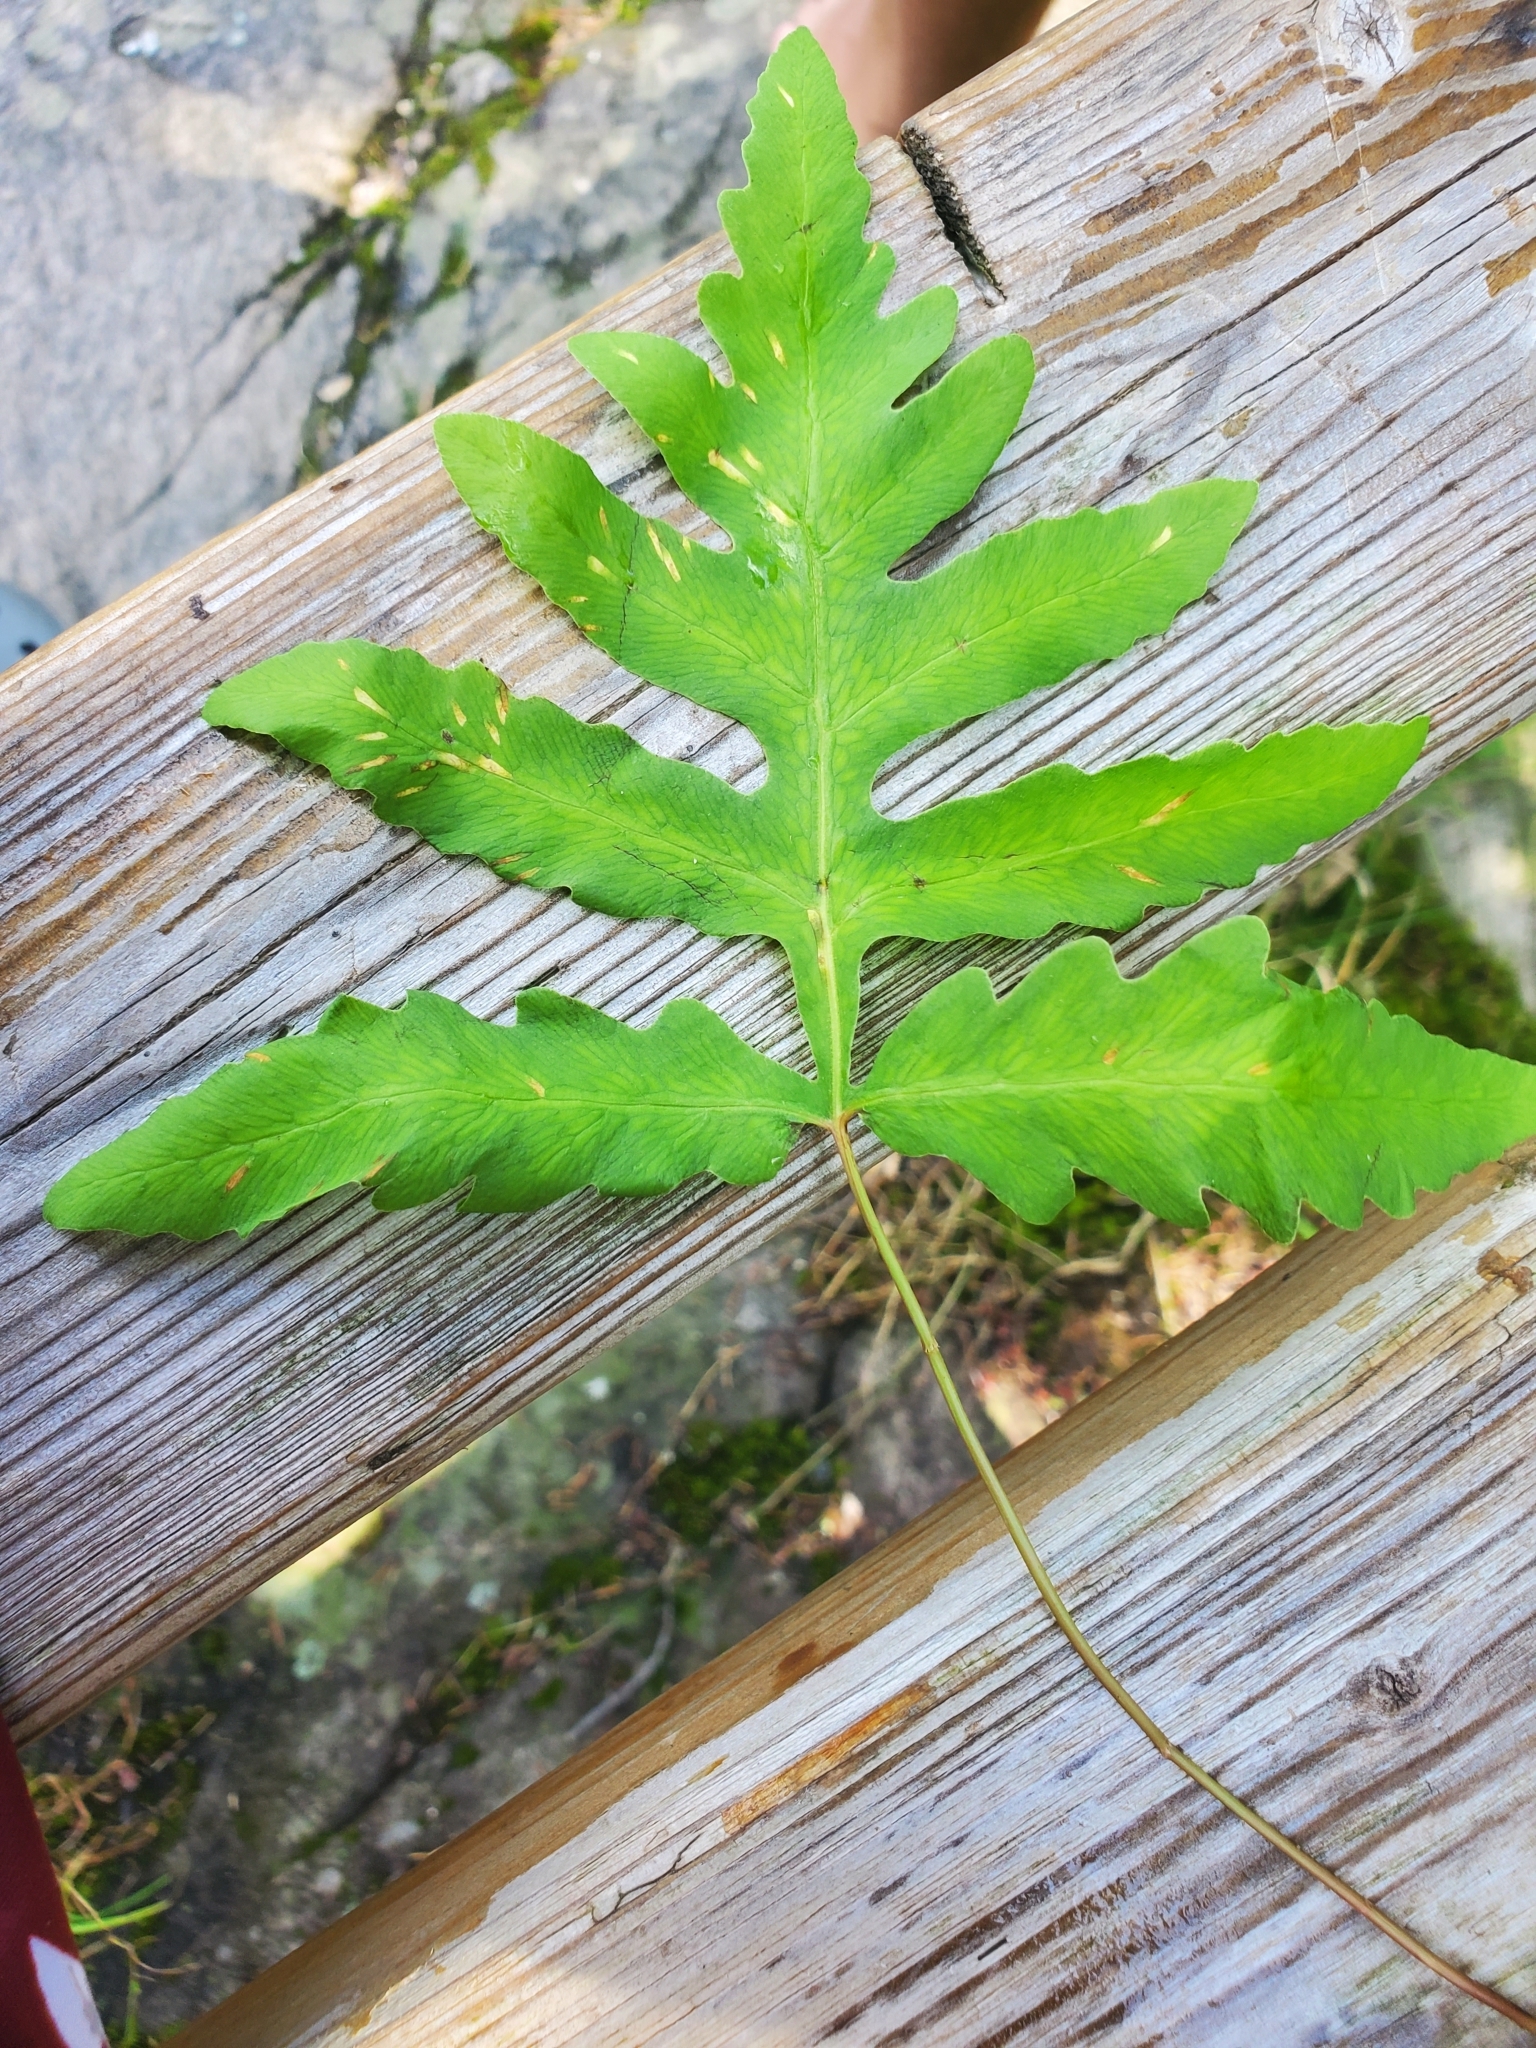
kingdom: Plantae
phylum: Tracheophyta
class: Polypodiopsida
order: Polypodiales
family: Onocleaceae
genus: Onoclea
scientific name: Onoclea sensibilis
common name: Sensitive fern
